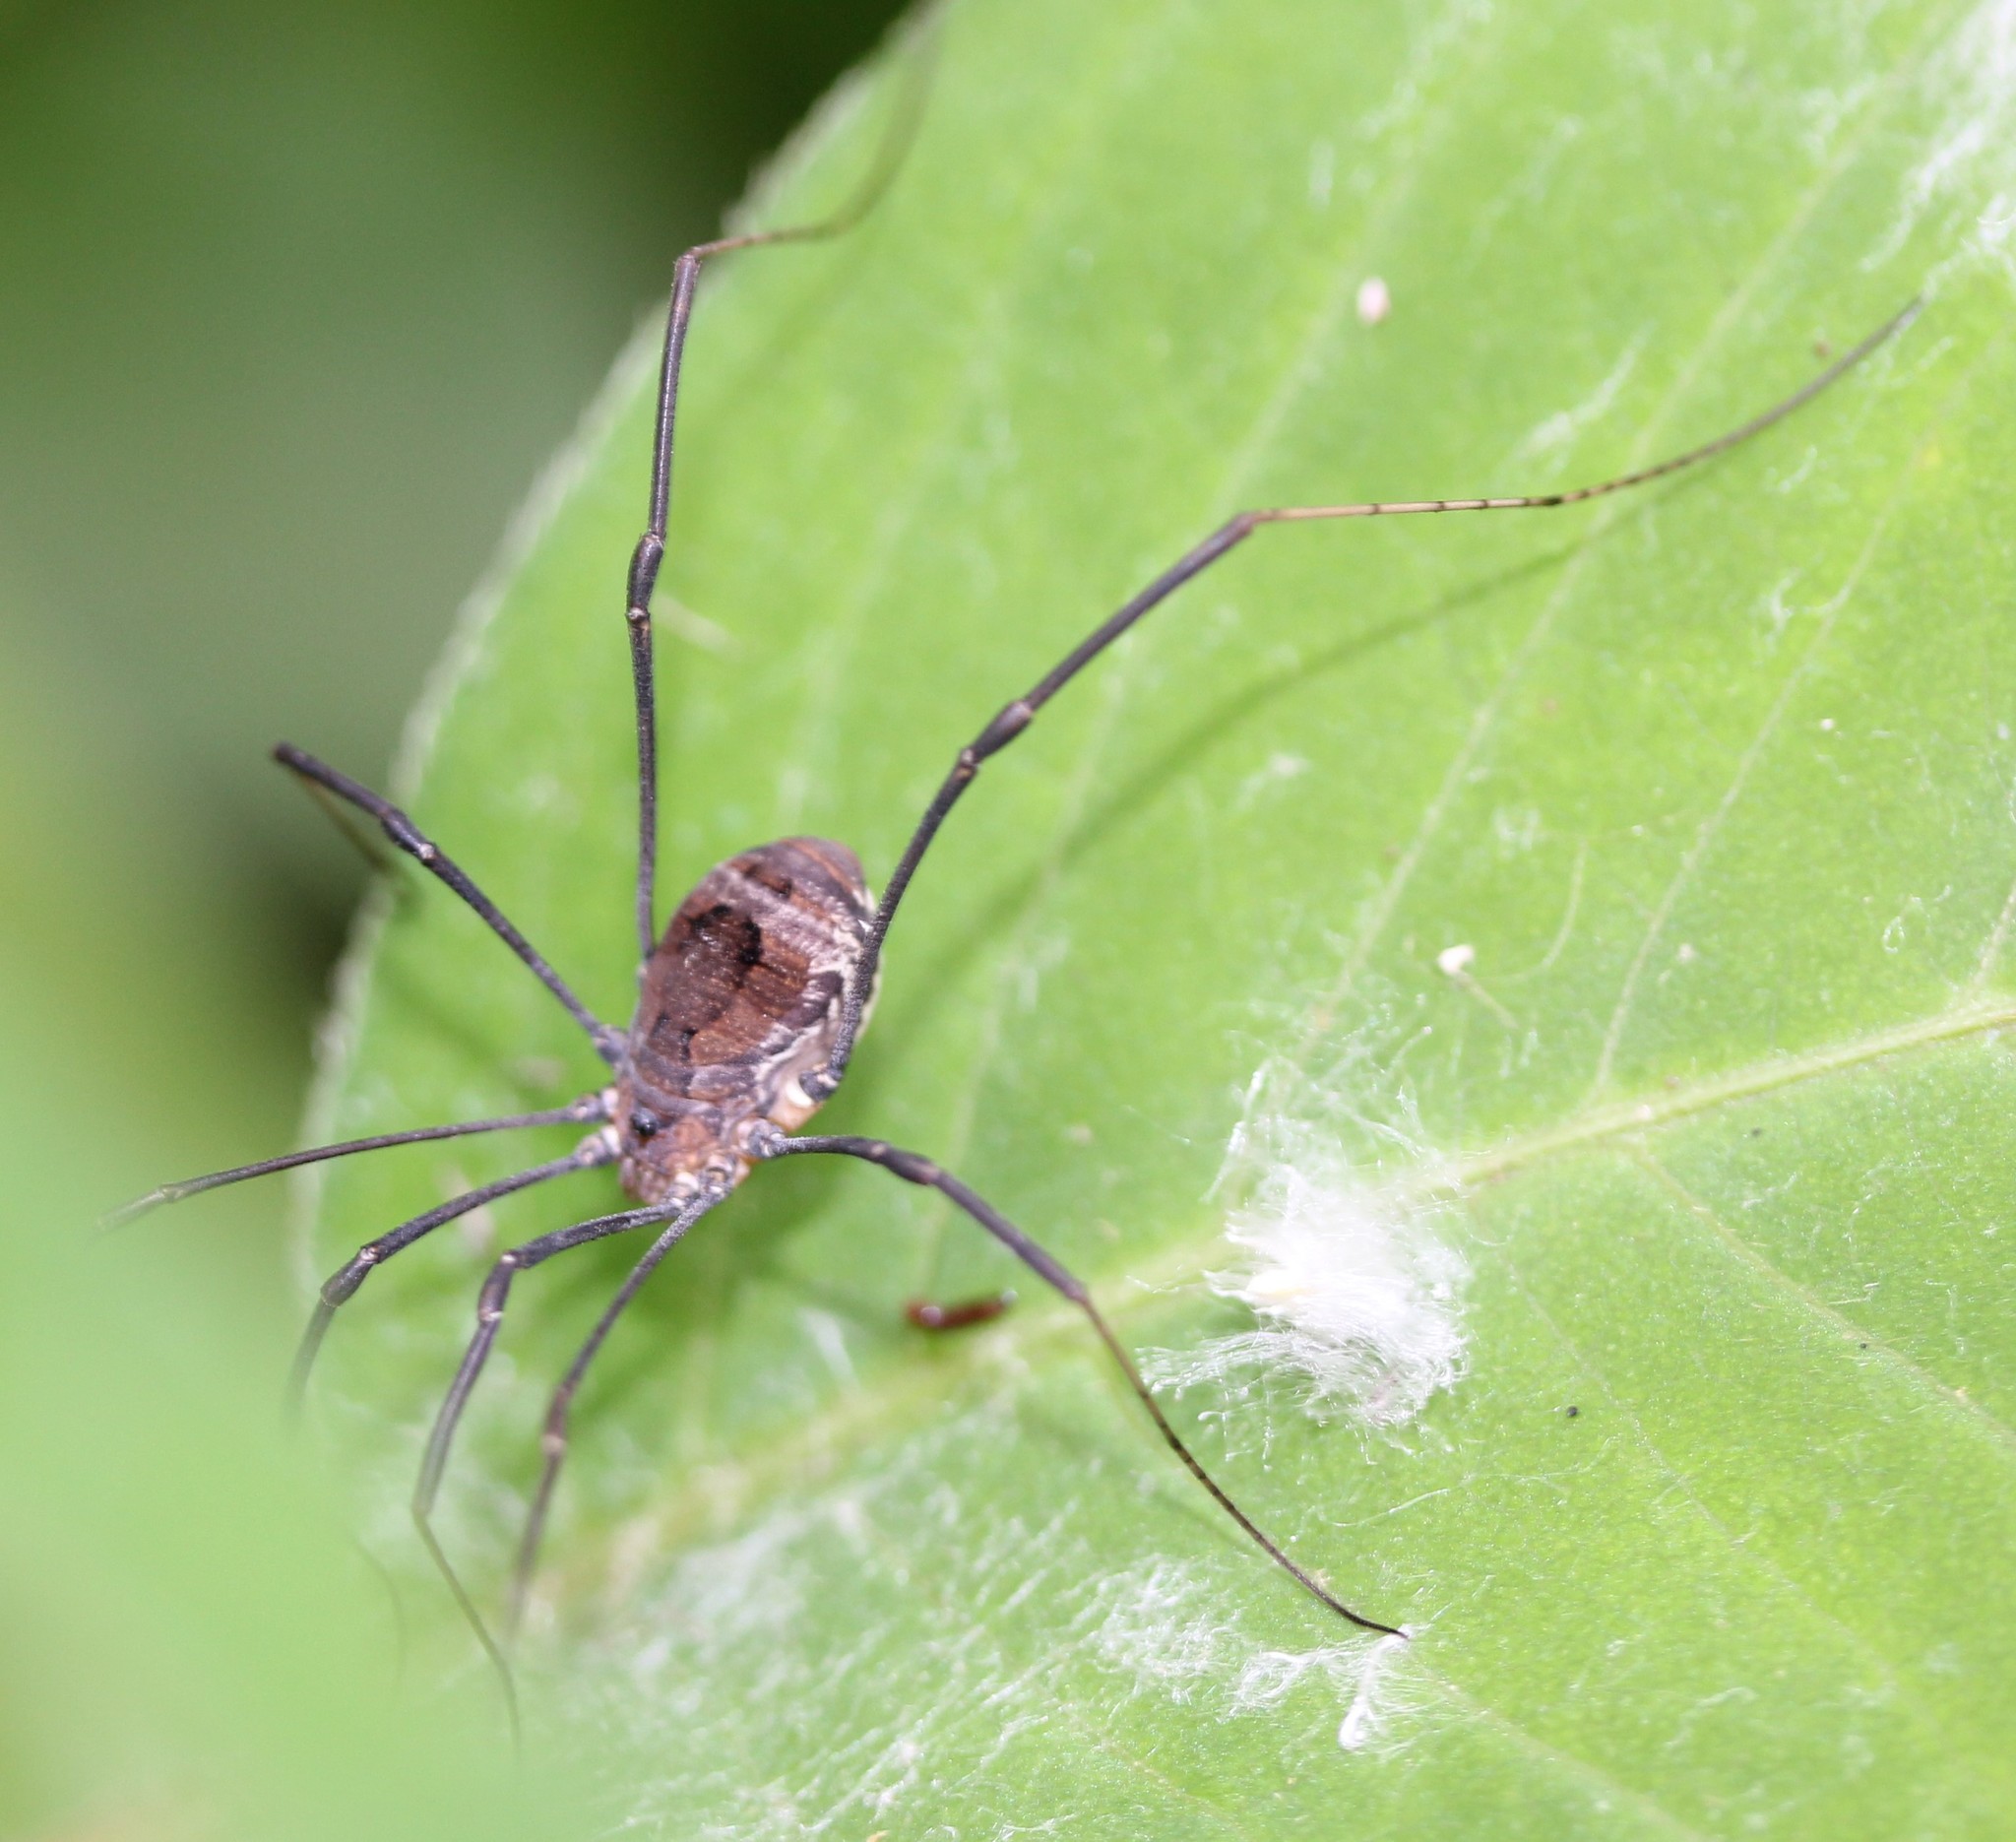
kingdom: Animalia
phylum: Arthropoda
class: Arachnida
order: Opiliones
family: Sclerosomatidae
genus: Leiobunum
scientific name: Leiobunum verrucosum
